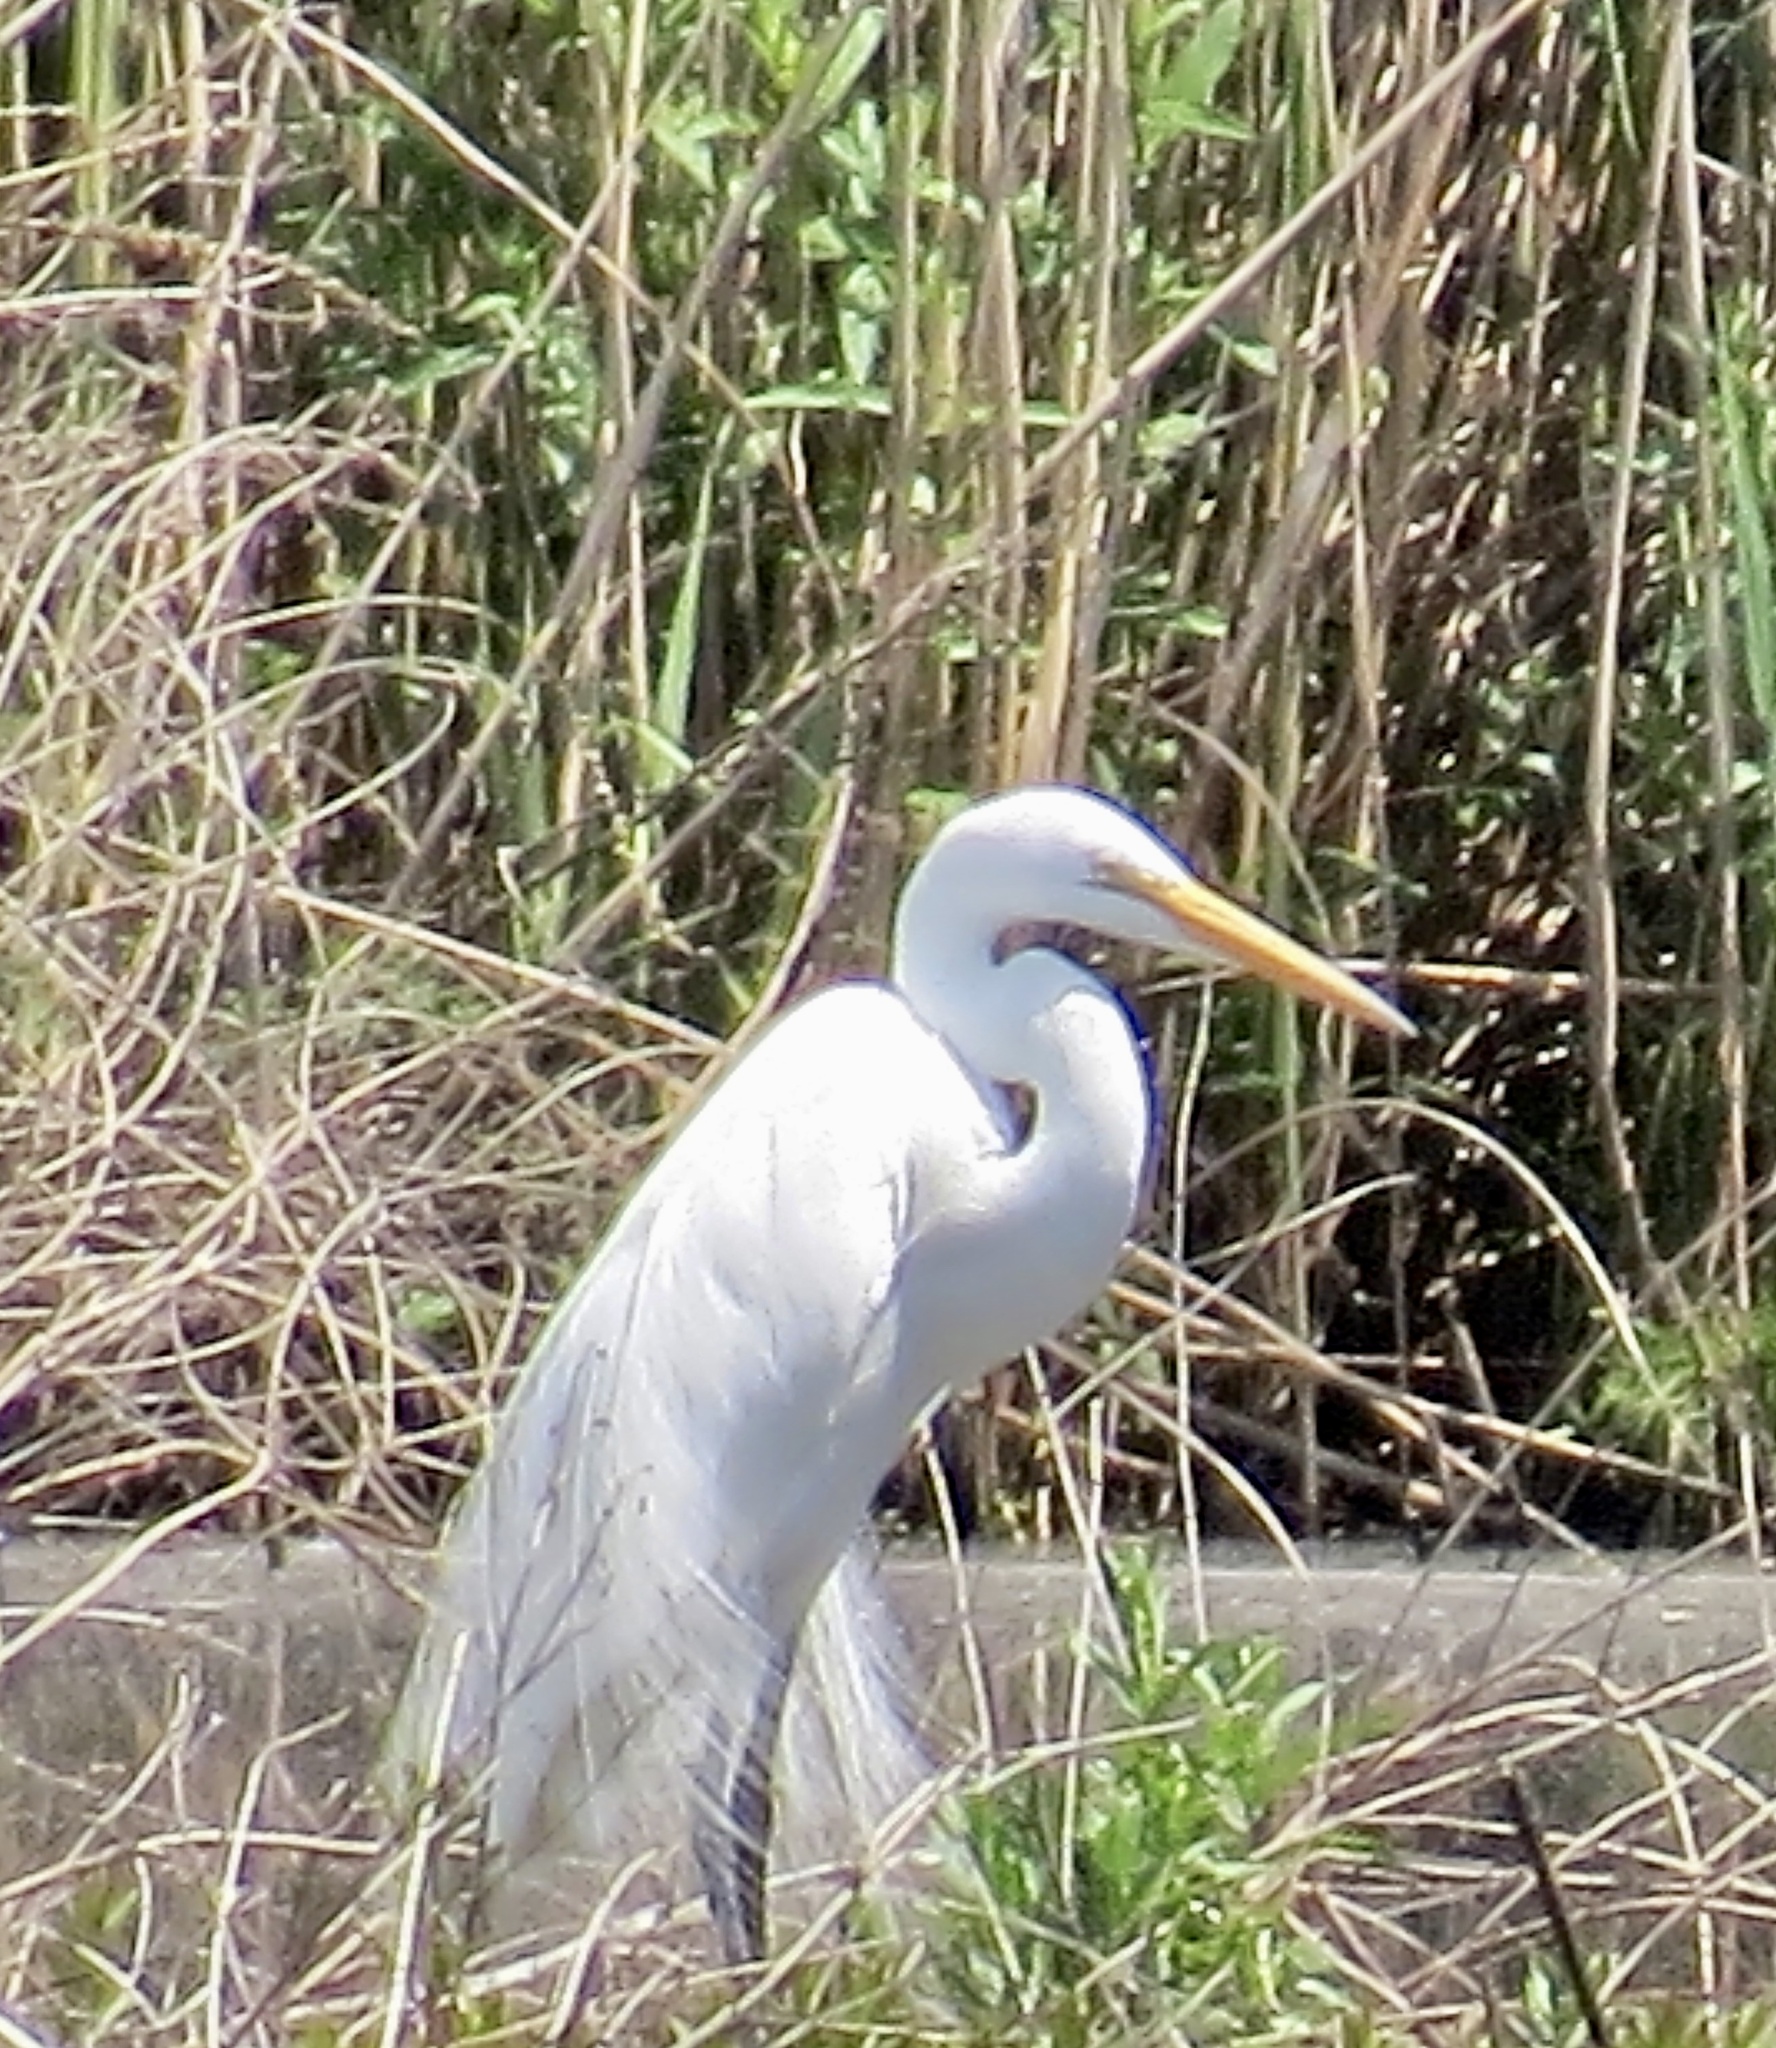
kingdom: Animalia
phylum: Chordata
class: Aves
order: Pelecaniformes
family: Ardeidae
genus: Ardea
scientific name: Ardea alba
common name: Great egret
